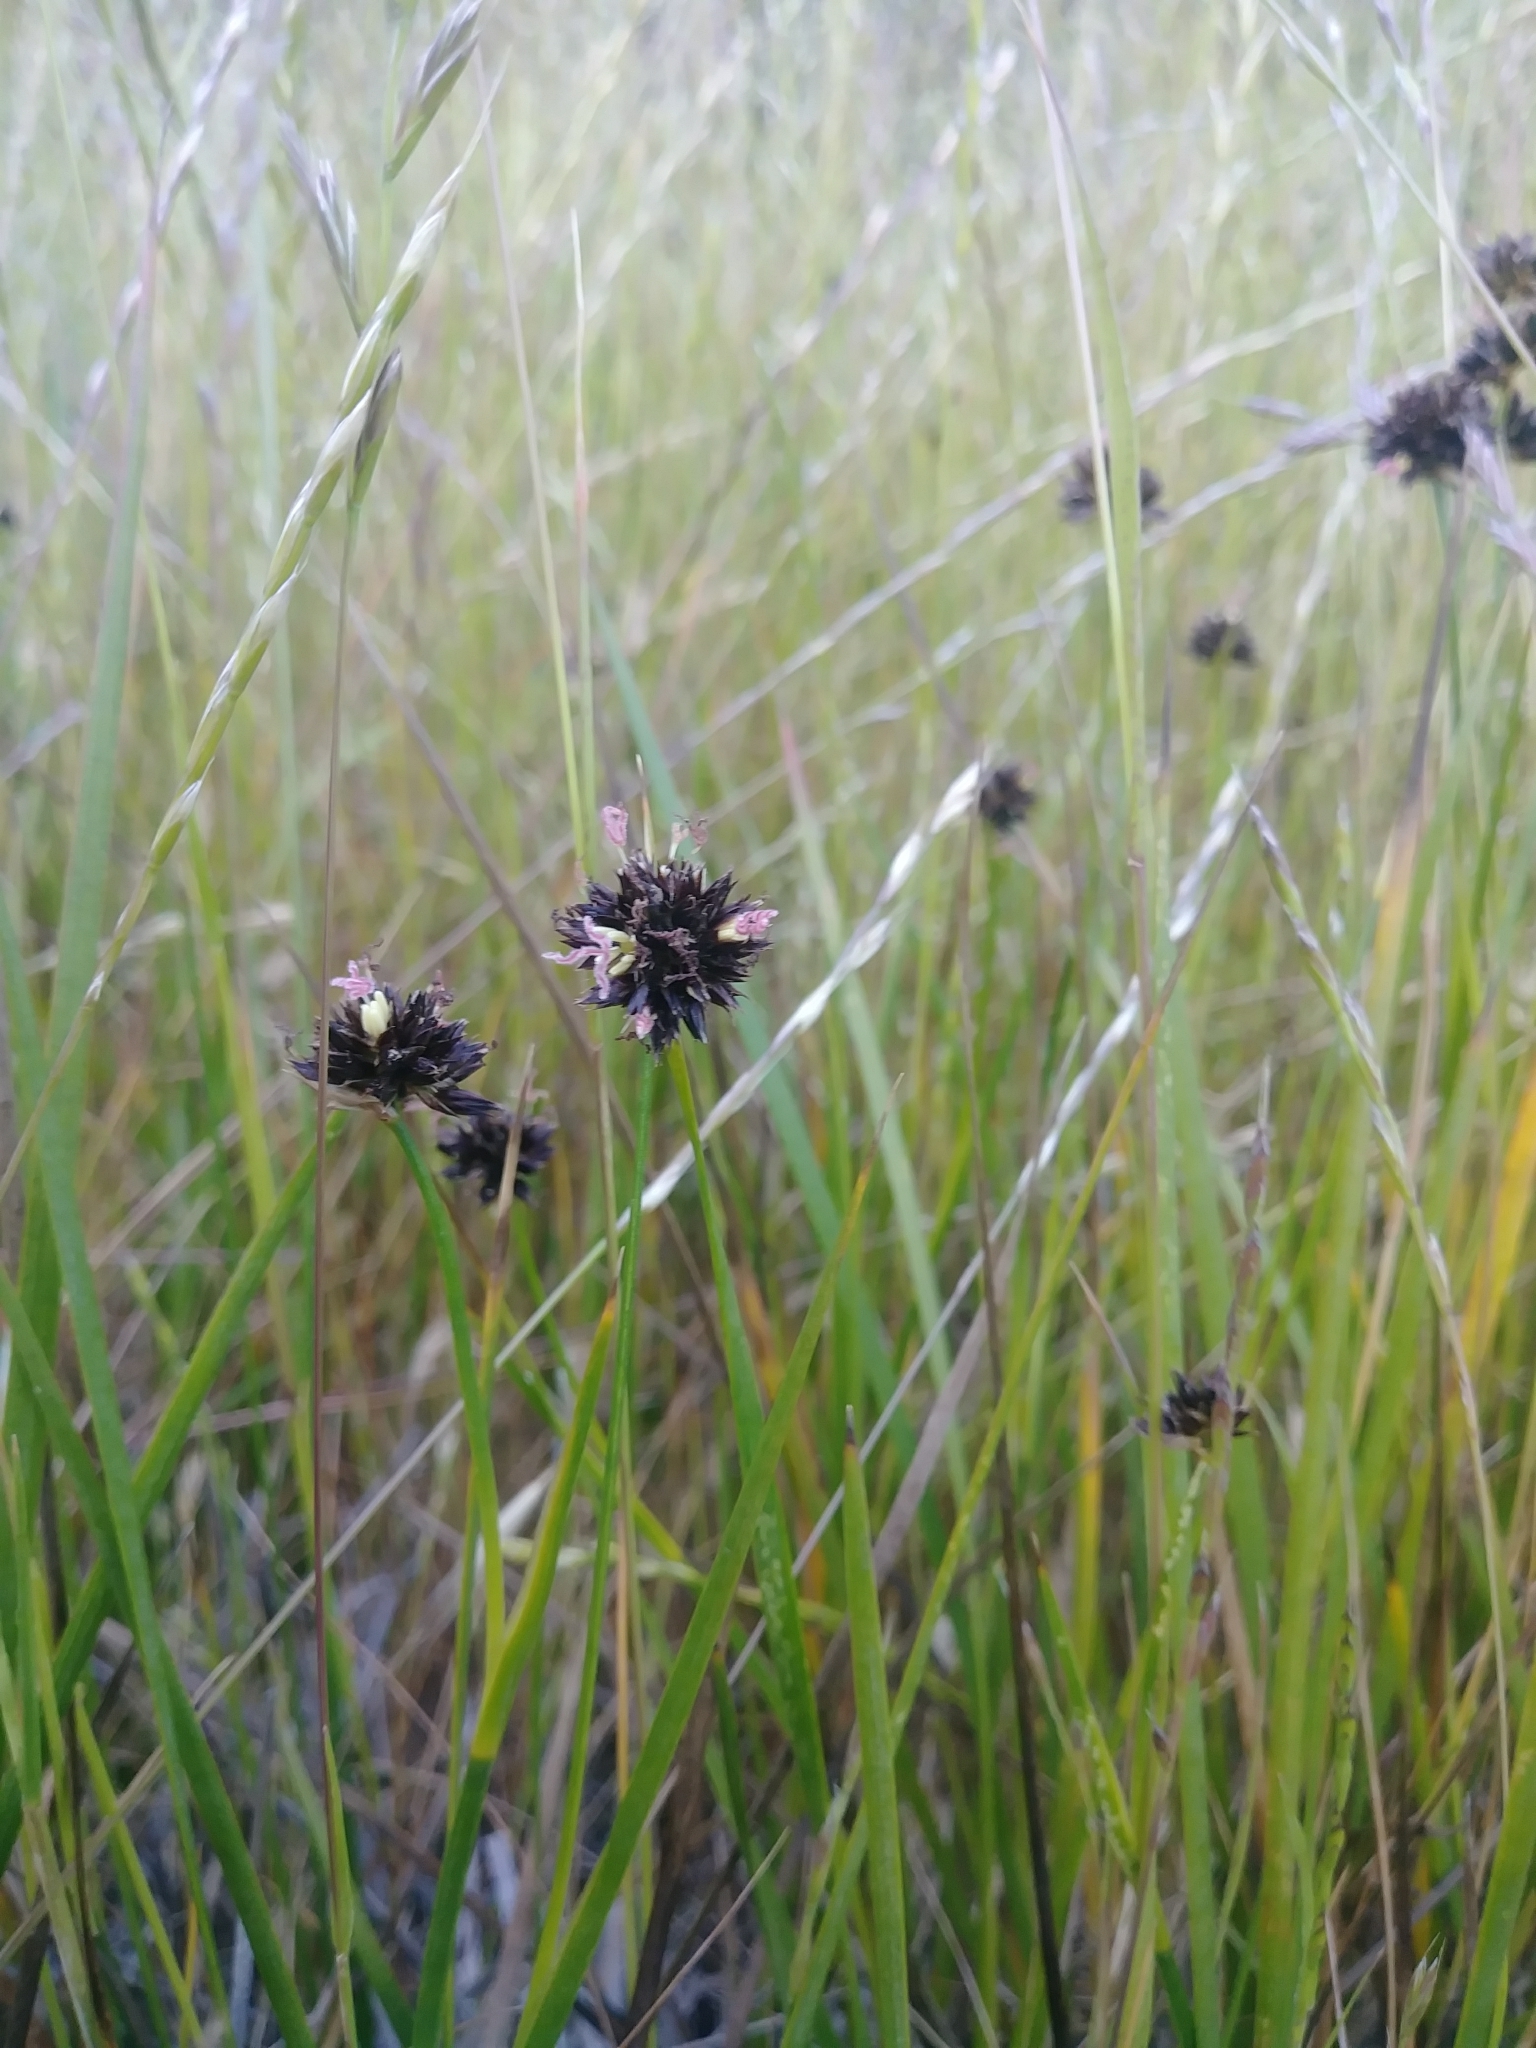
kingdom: Plantae
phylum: Tracheophyta
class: Liliopsida
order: Poales
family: Juncaceae
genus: Juncus
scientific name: Juncus xiphioides
